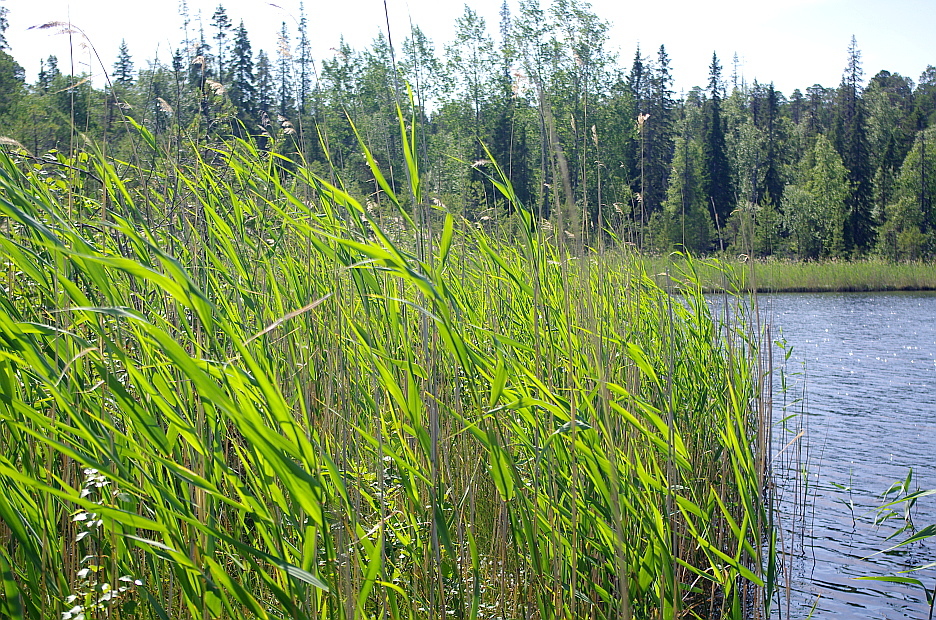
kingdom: Plantae
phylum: Tracheophyta
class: Liliopsida
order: Poales
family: Poaceae
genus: Phragmites
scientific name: Phragmites australis
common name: Common reed
